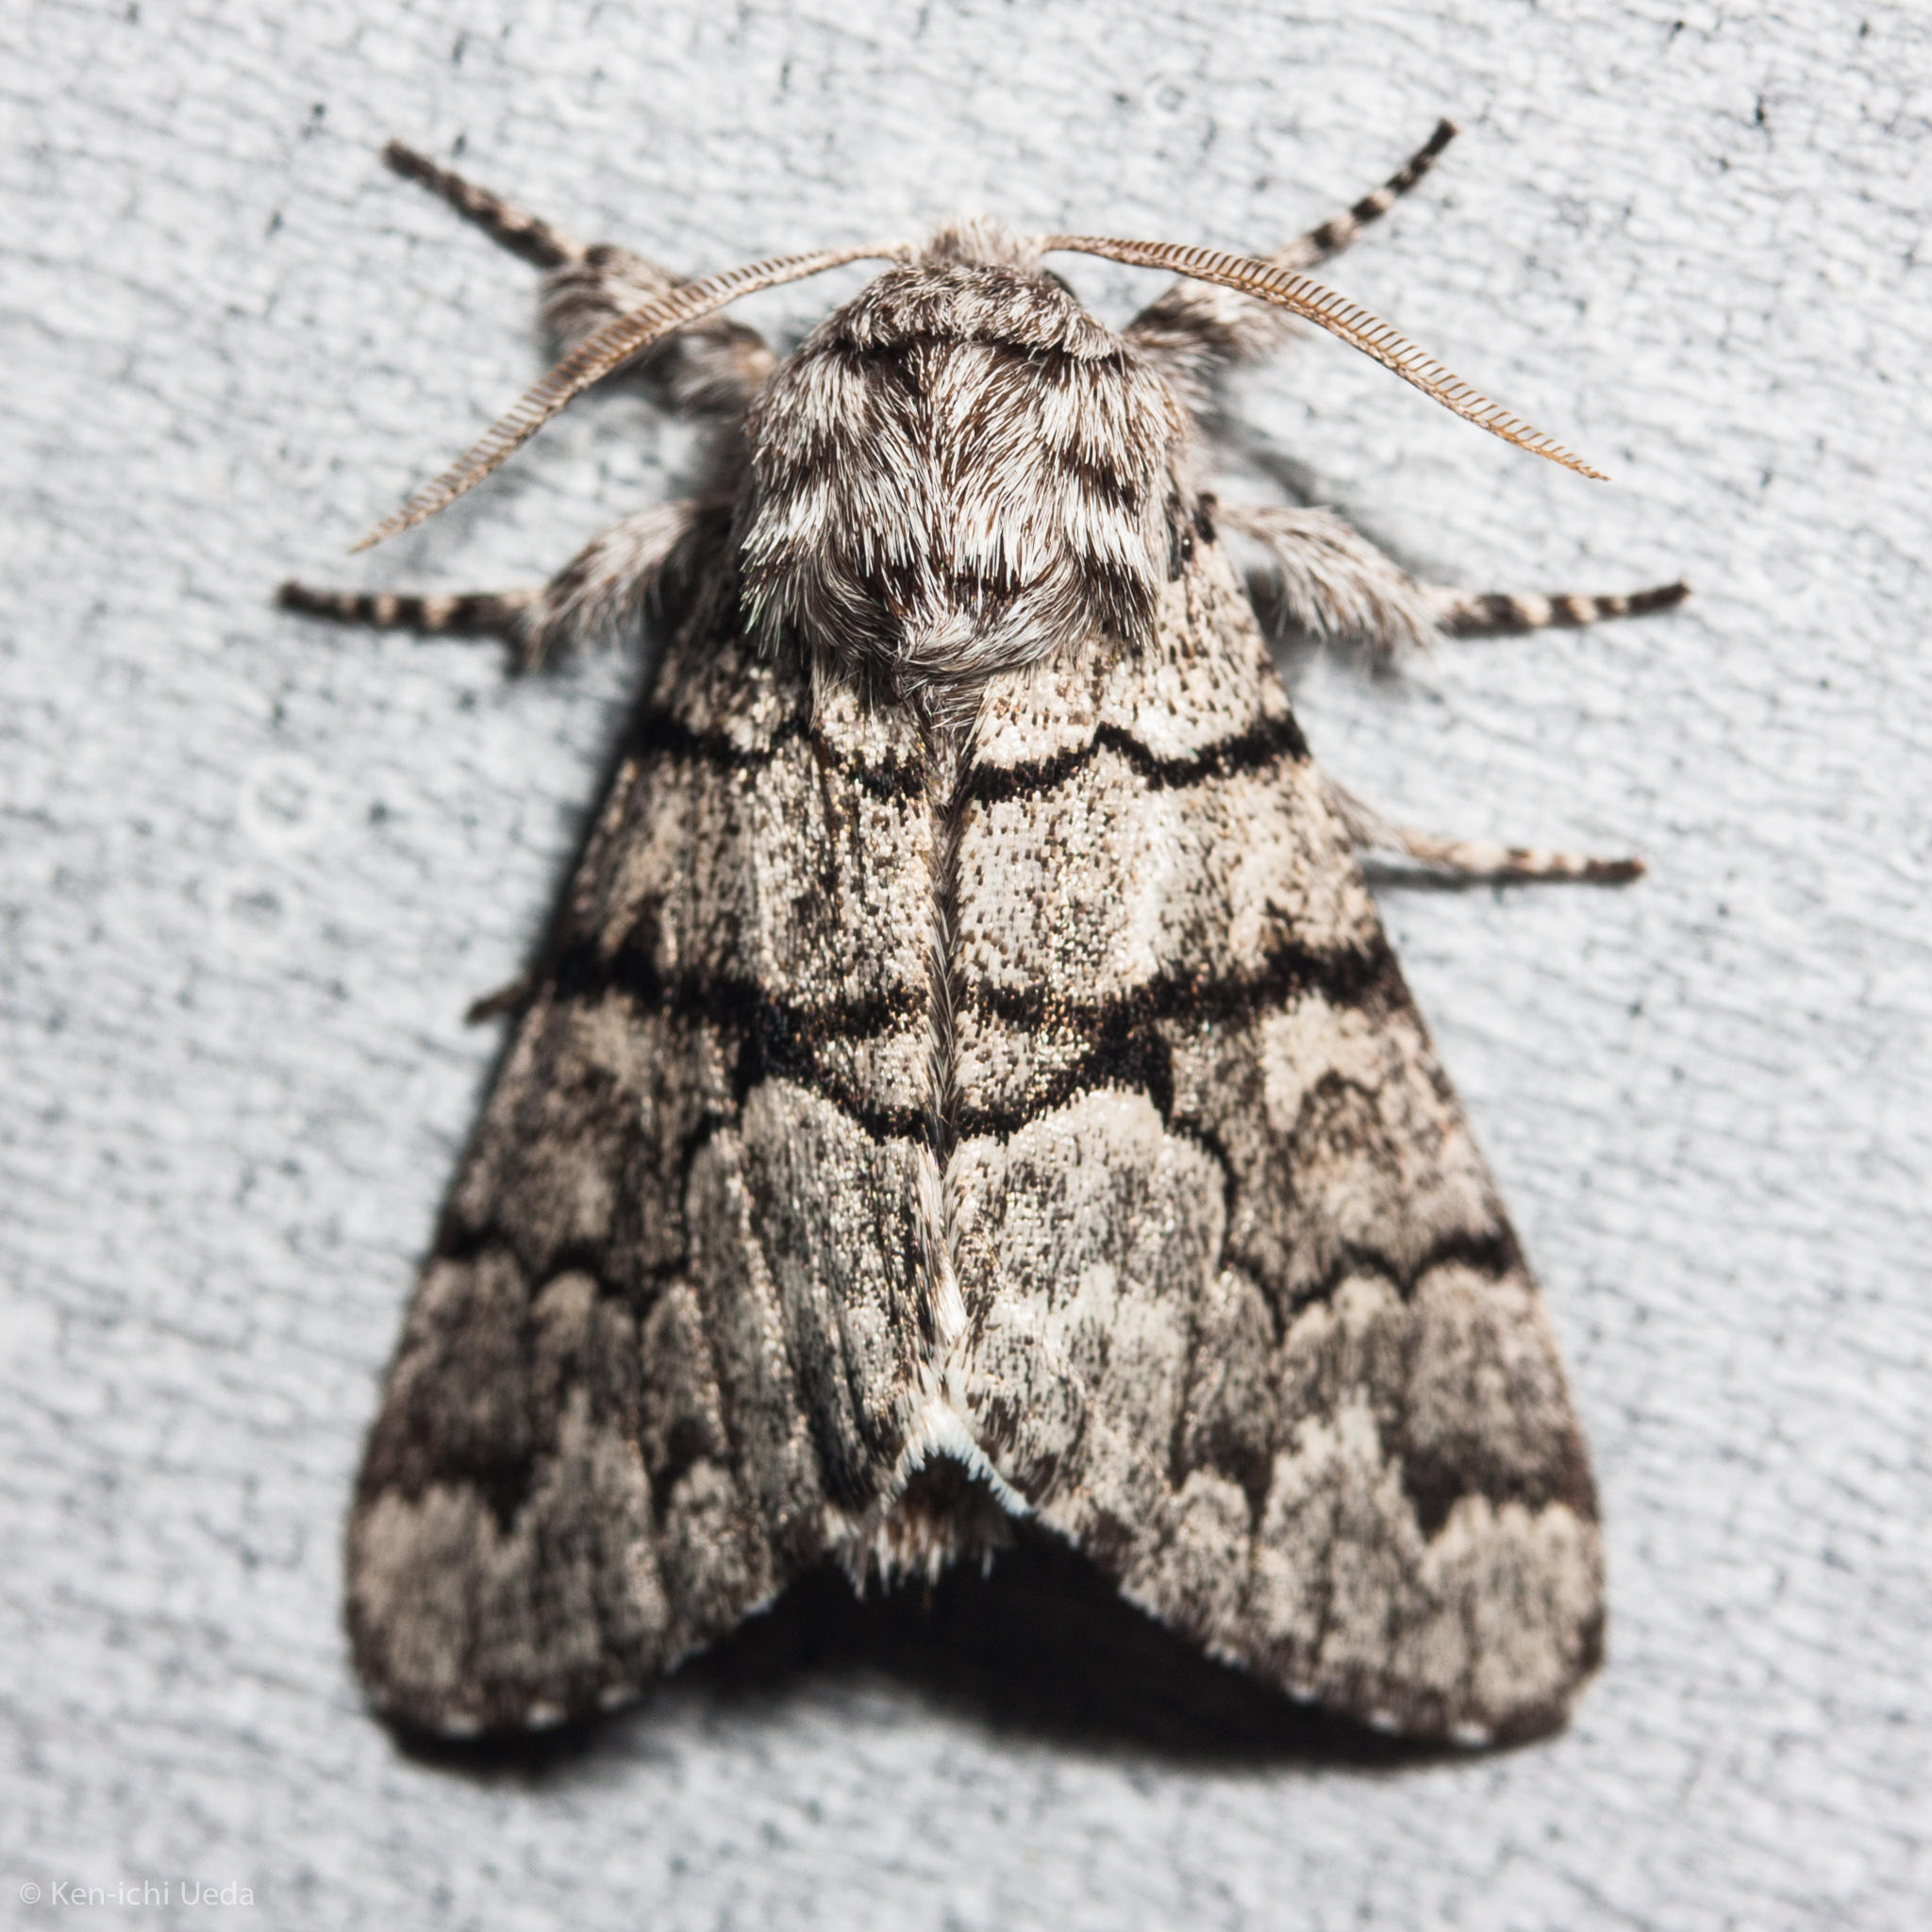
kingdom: Animalia
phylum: Arthropoda
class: Insecta
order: Lepidoptera
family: Noctuidae
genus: Panthea
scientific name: Panthea furcilla
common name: Eastern panthea moth
